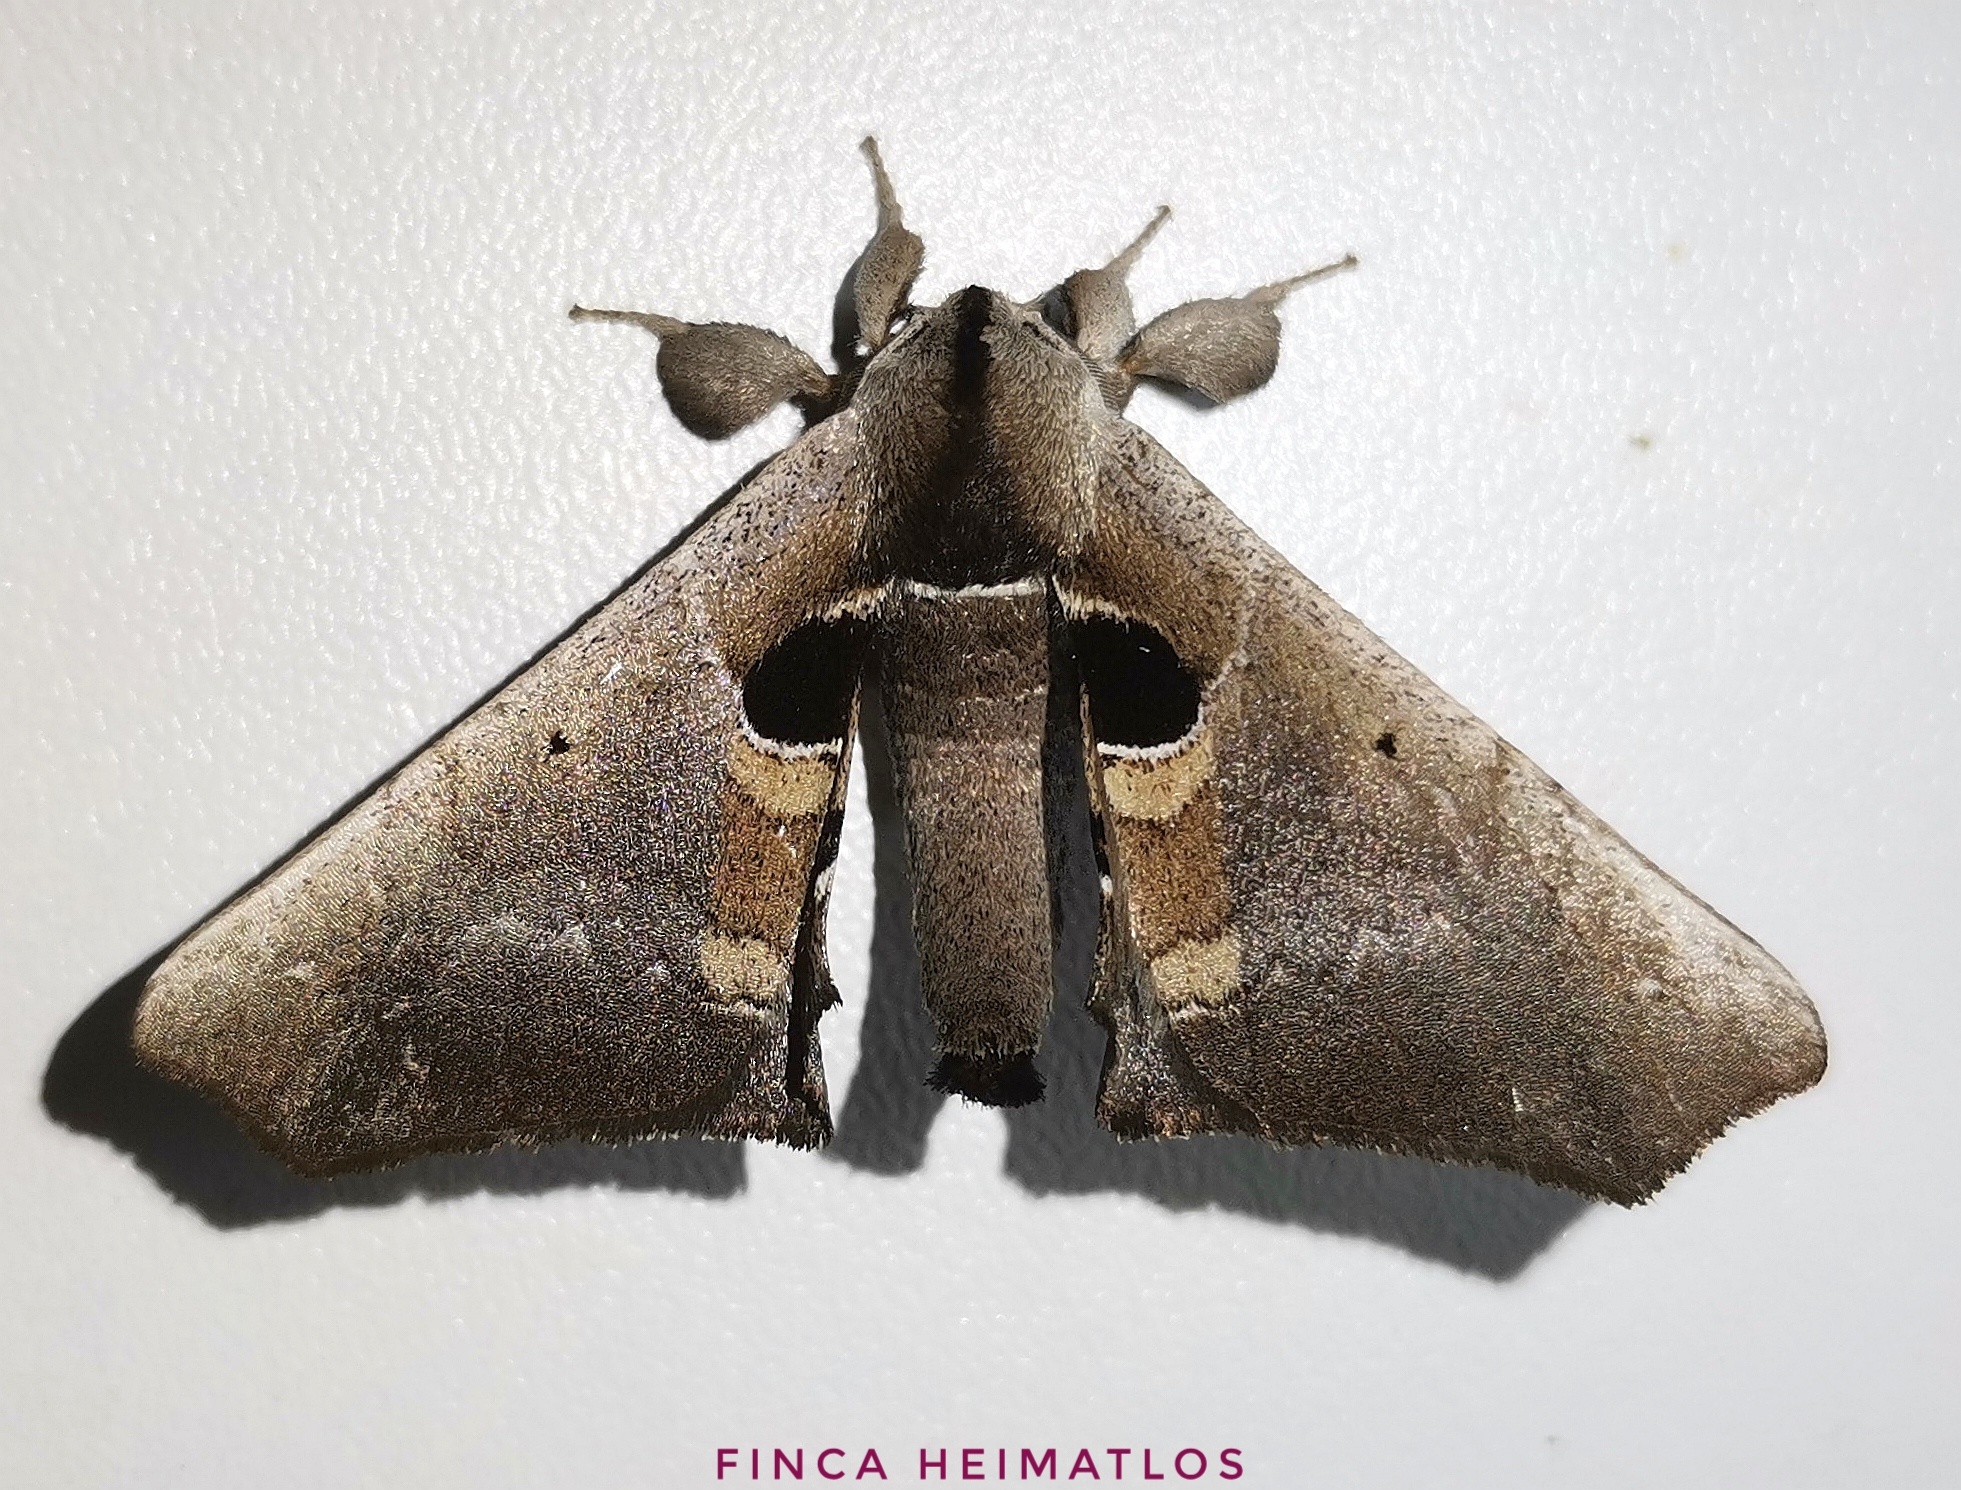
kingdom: Animalia
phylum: Arthropoda
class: Insecta
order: Lepidoptera
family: Apatelodidae
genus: Hygrochroa
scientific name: Hygrochroa Apatelodes cirna
